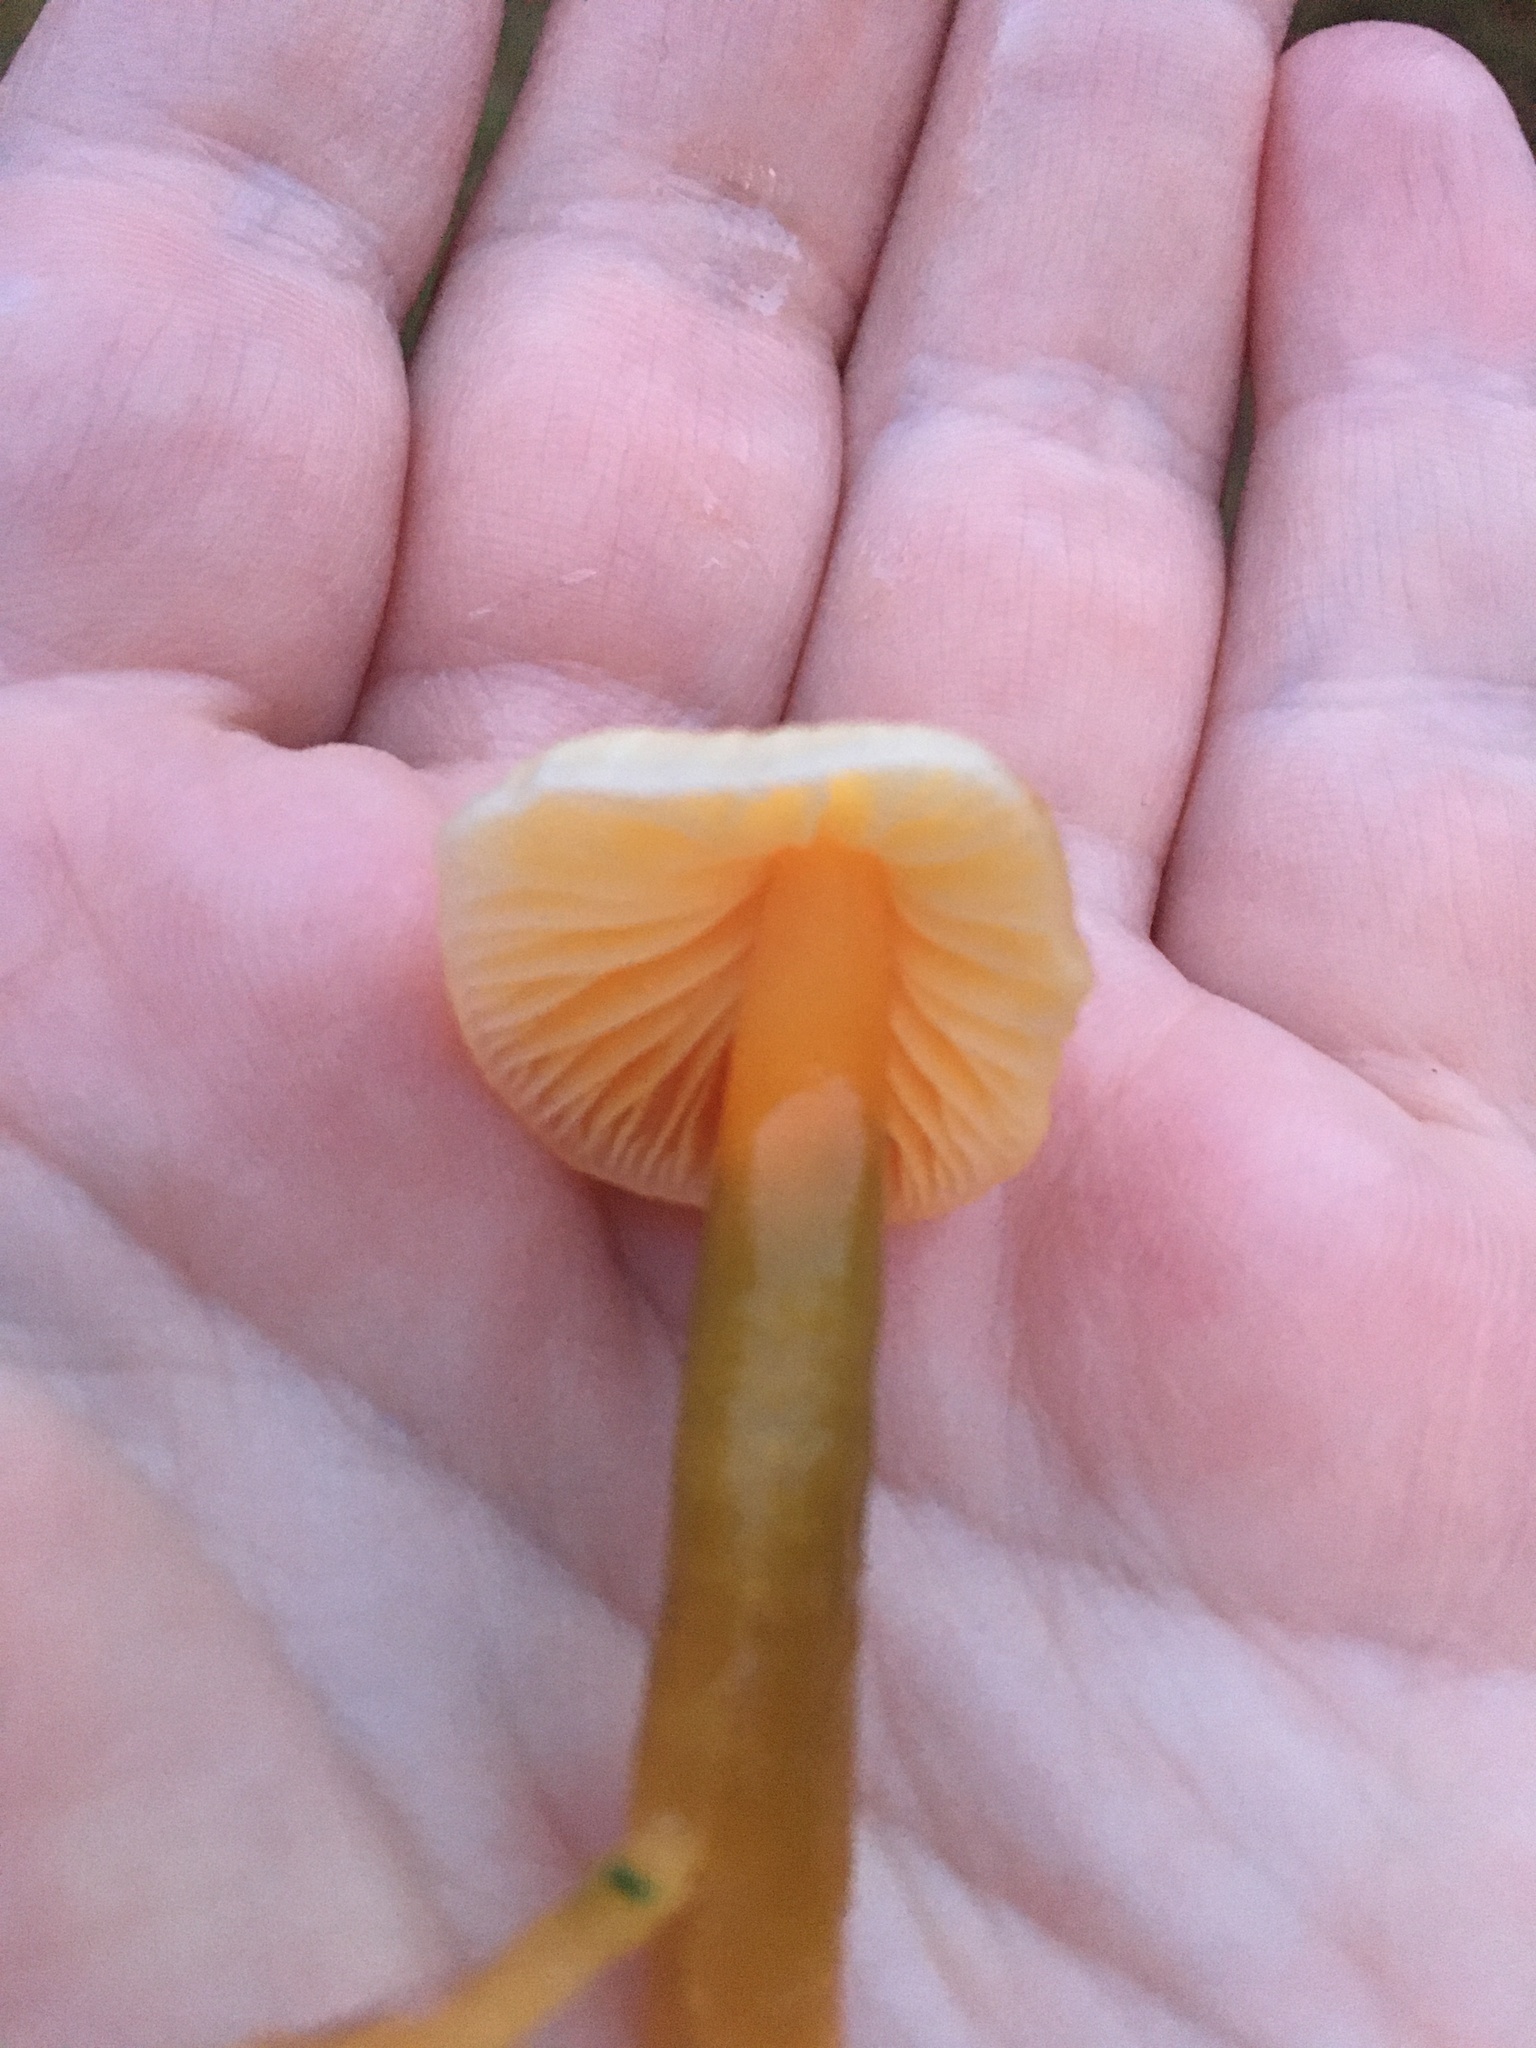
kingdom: Fungi
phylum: Basidiomycota
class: Agaricomycetes
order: Agaricales
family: Hygrophoraceae
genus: Gliophorus
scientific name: Gliophorus psittacinus
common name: Parrot wax-cap
